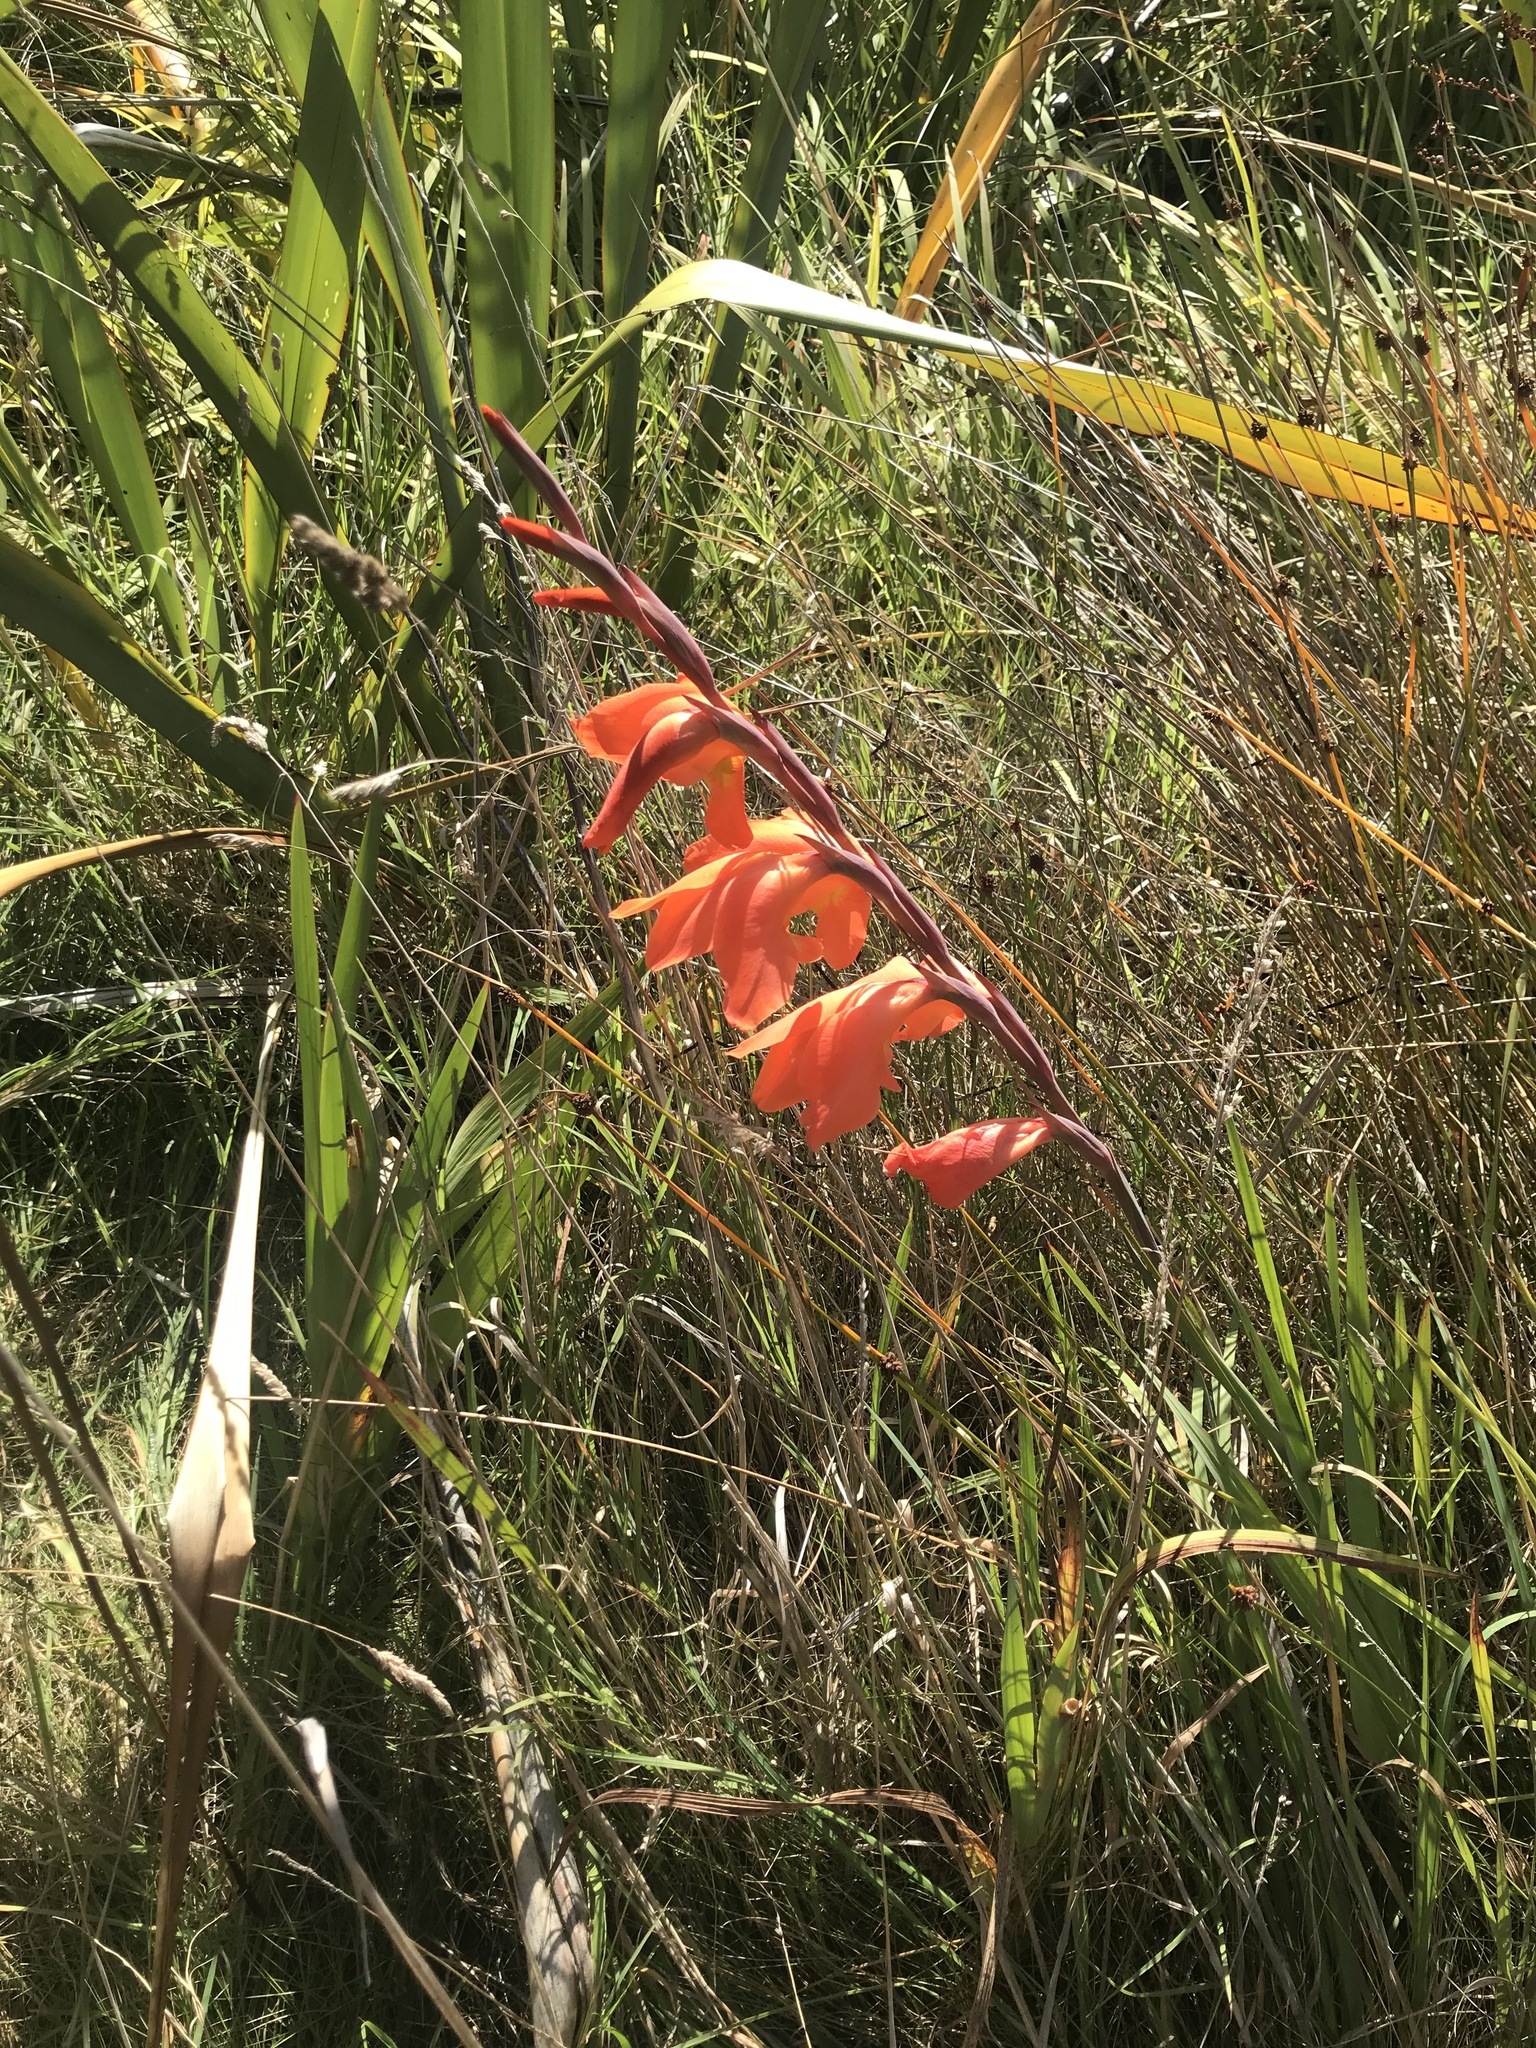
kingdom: Plantae
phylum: Tracheophyta
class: Liliopsida
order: Asparagales
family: Iridaceae
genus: Gladiolus
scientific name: Gladiolus dalenii
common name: Cornflag
